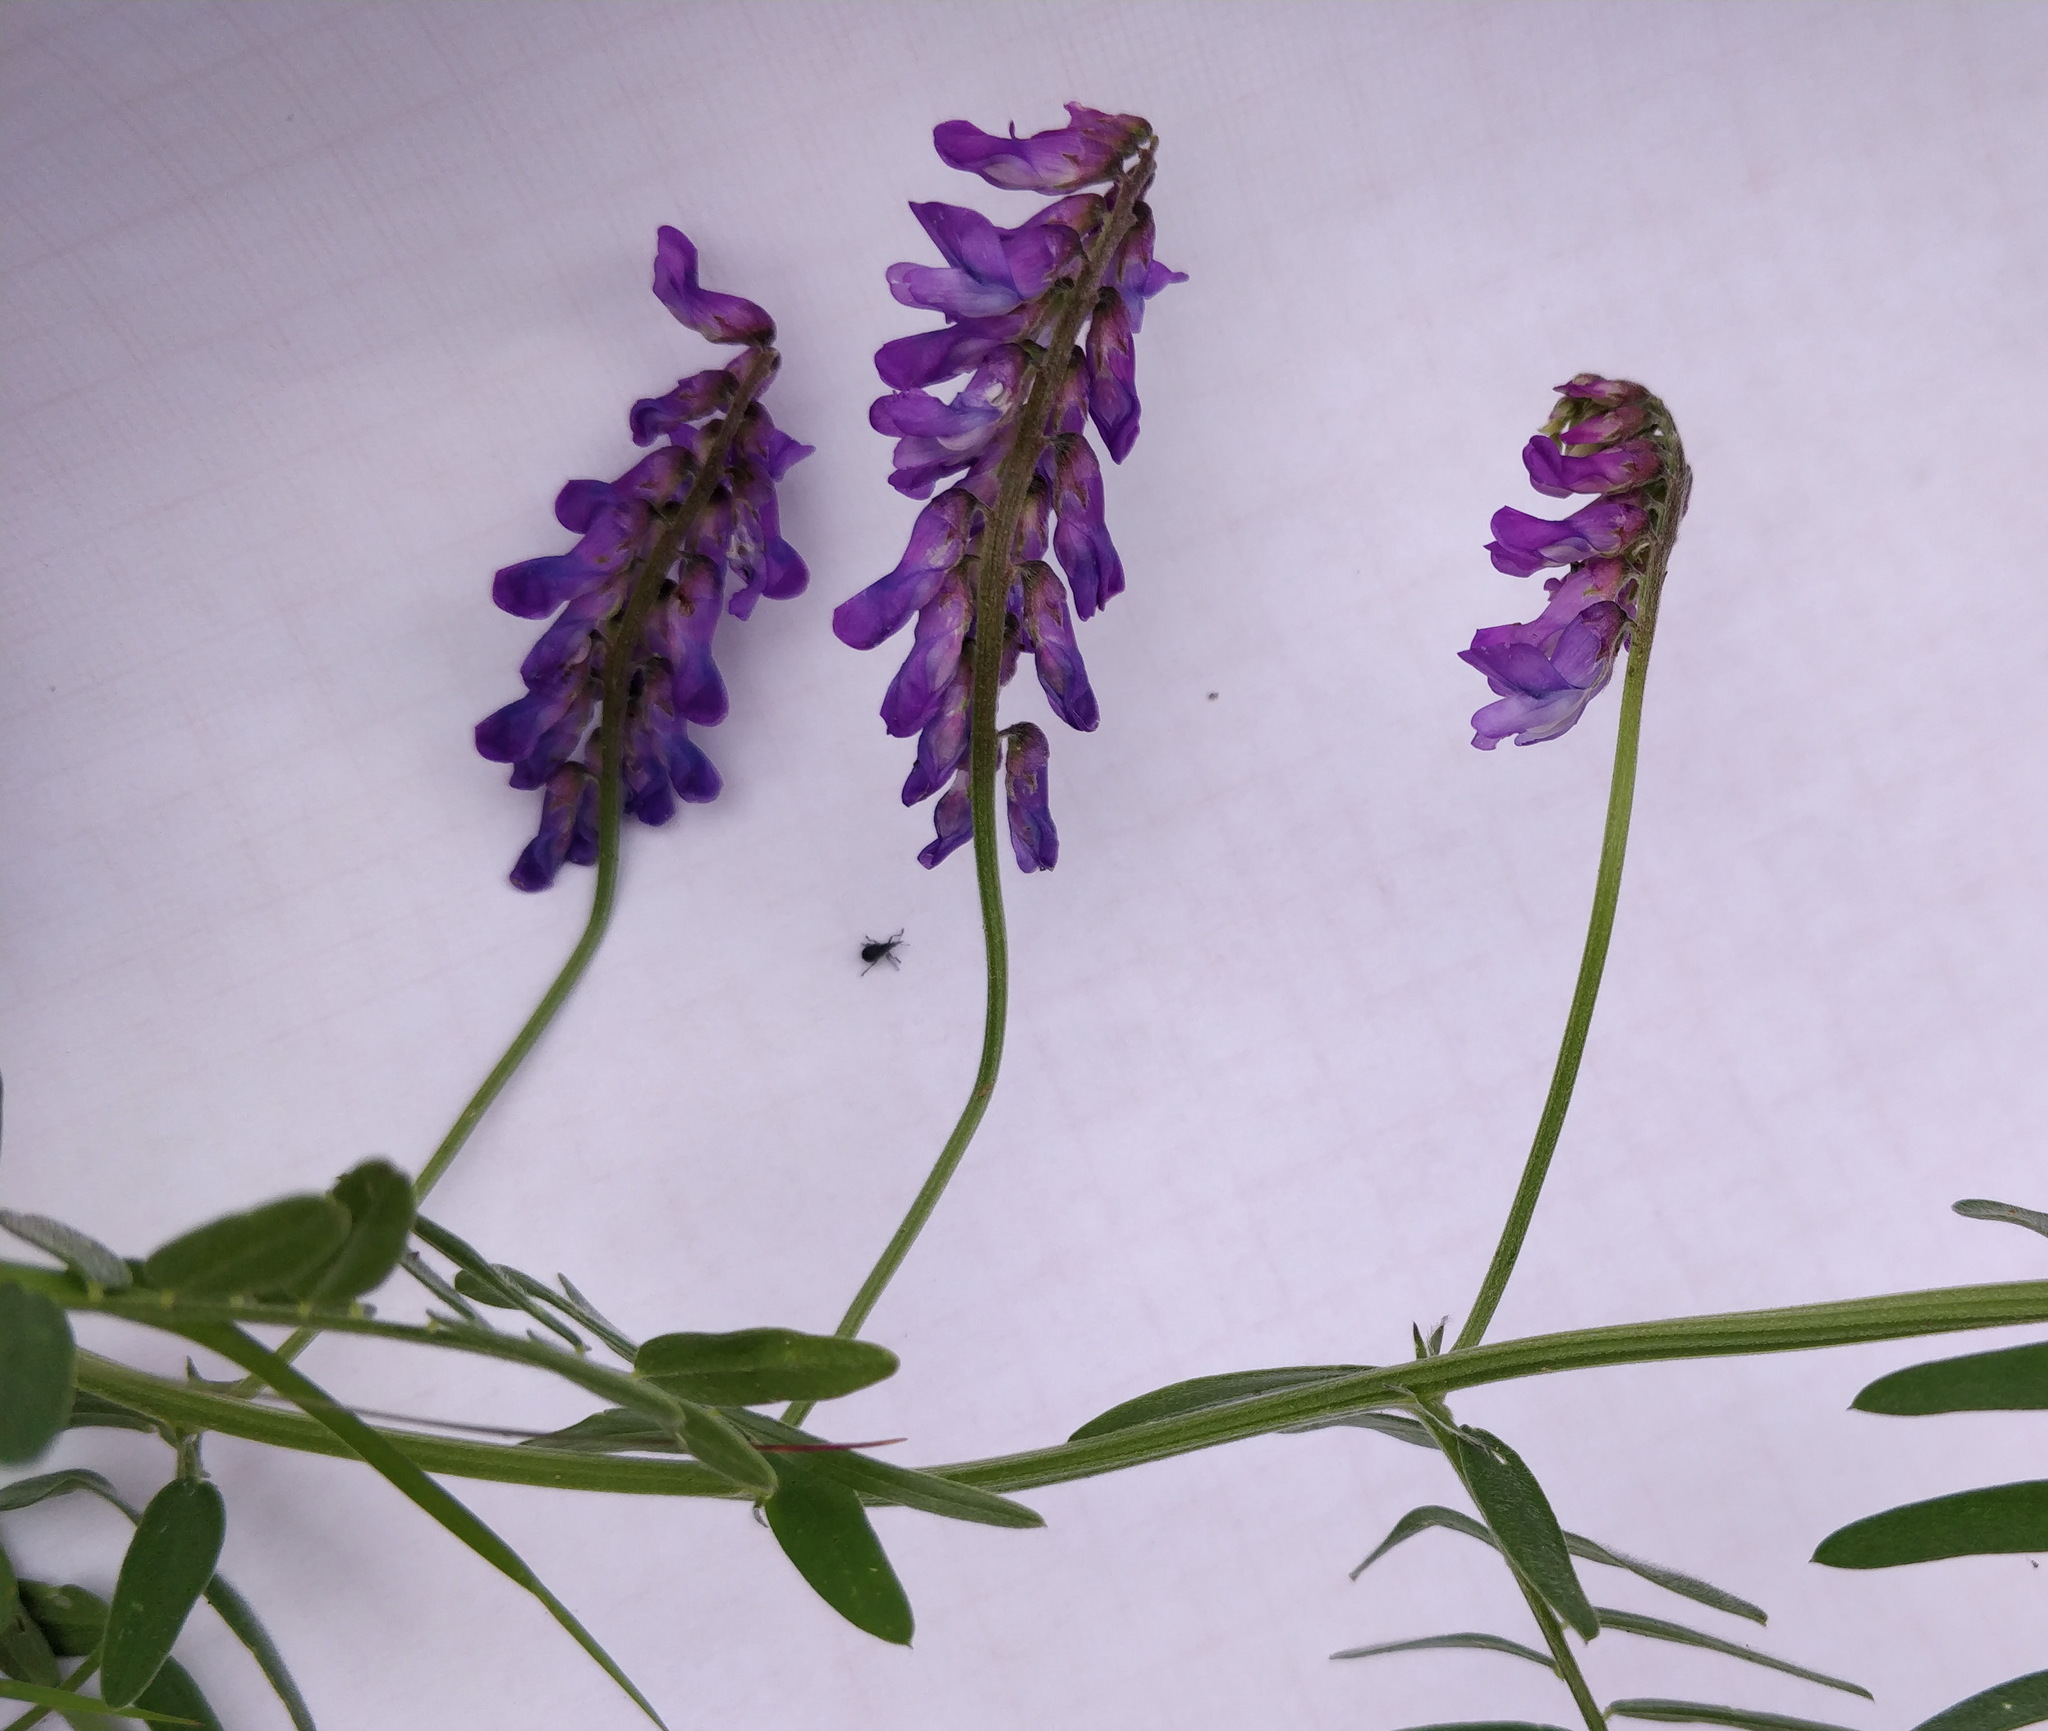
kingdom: Plantae
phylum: Tracheophyta
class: Magnoliopsida
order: Fabales
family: Fabaceae
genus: Vicia
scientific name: Vicia cracca
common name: Bird vetch
